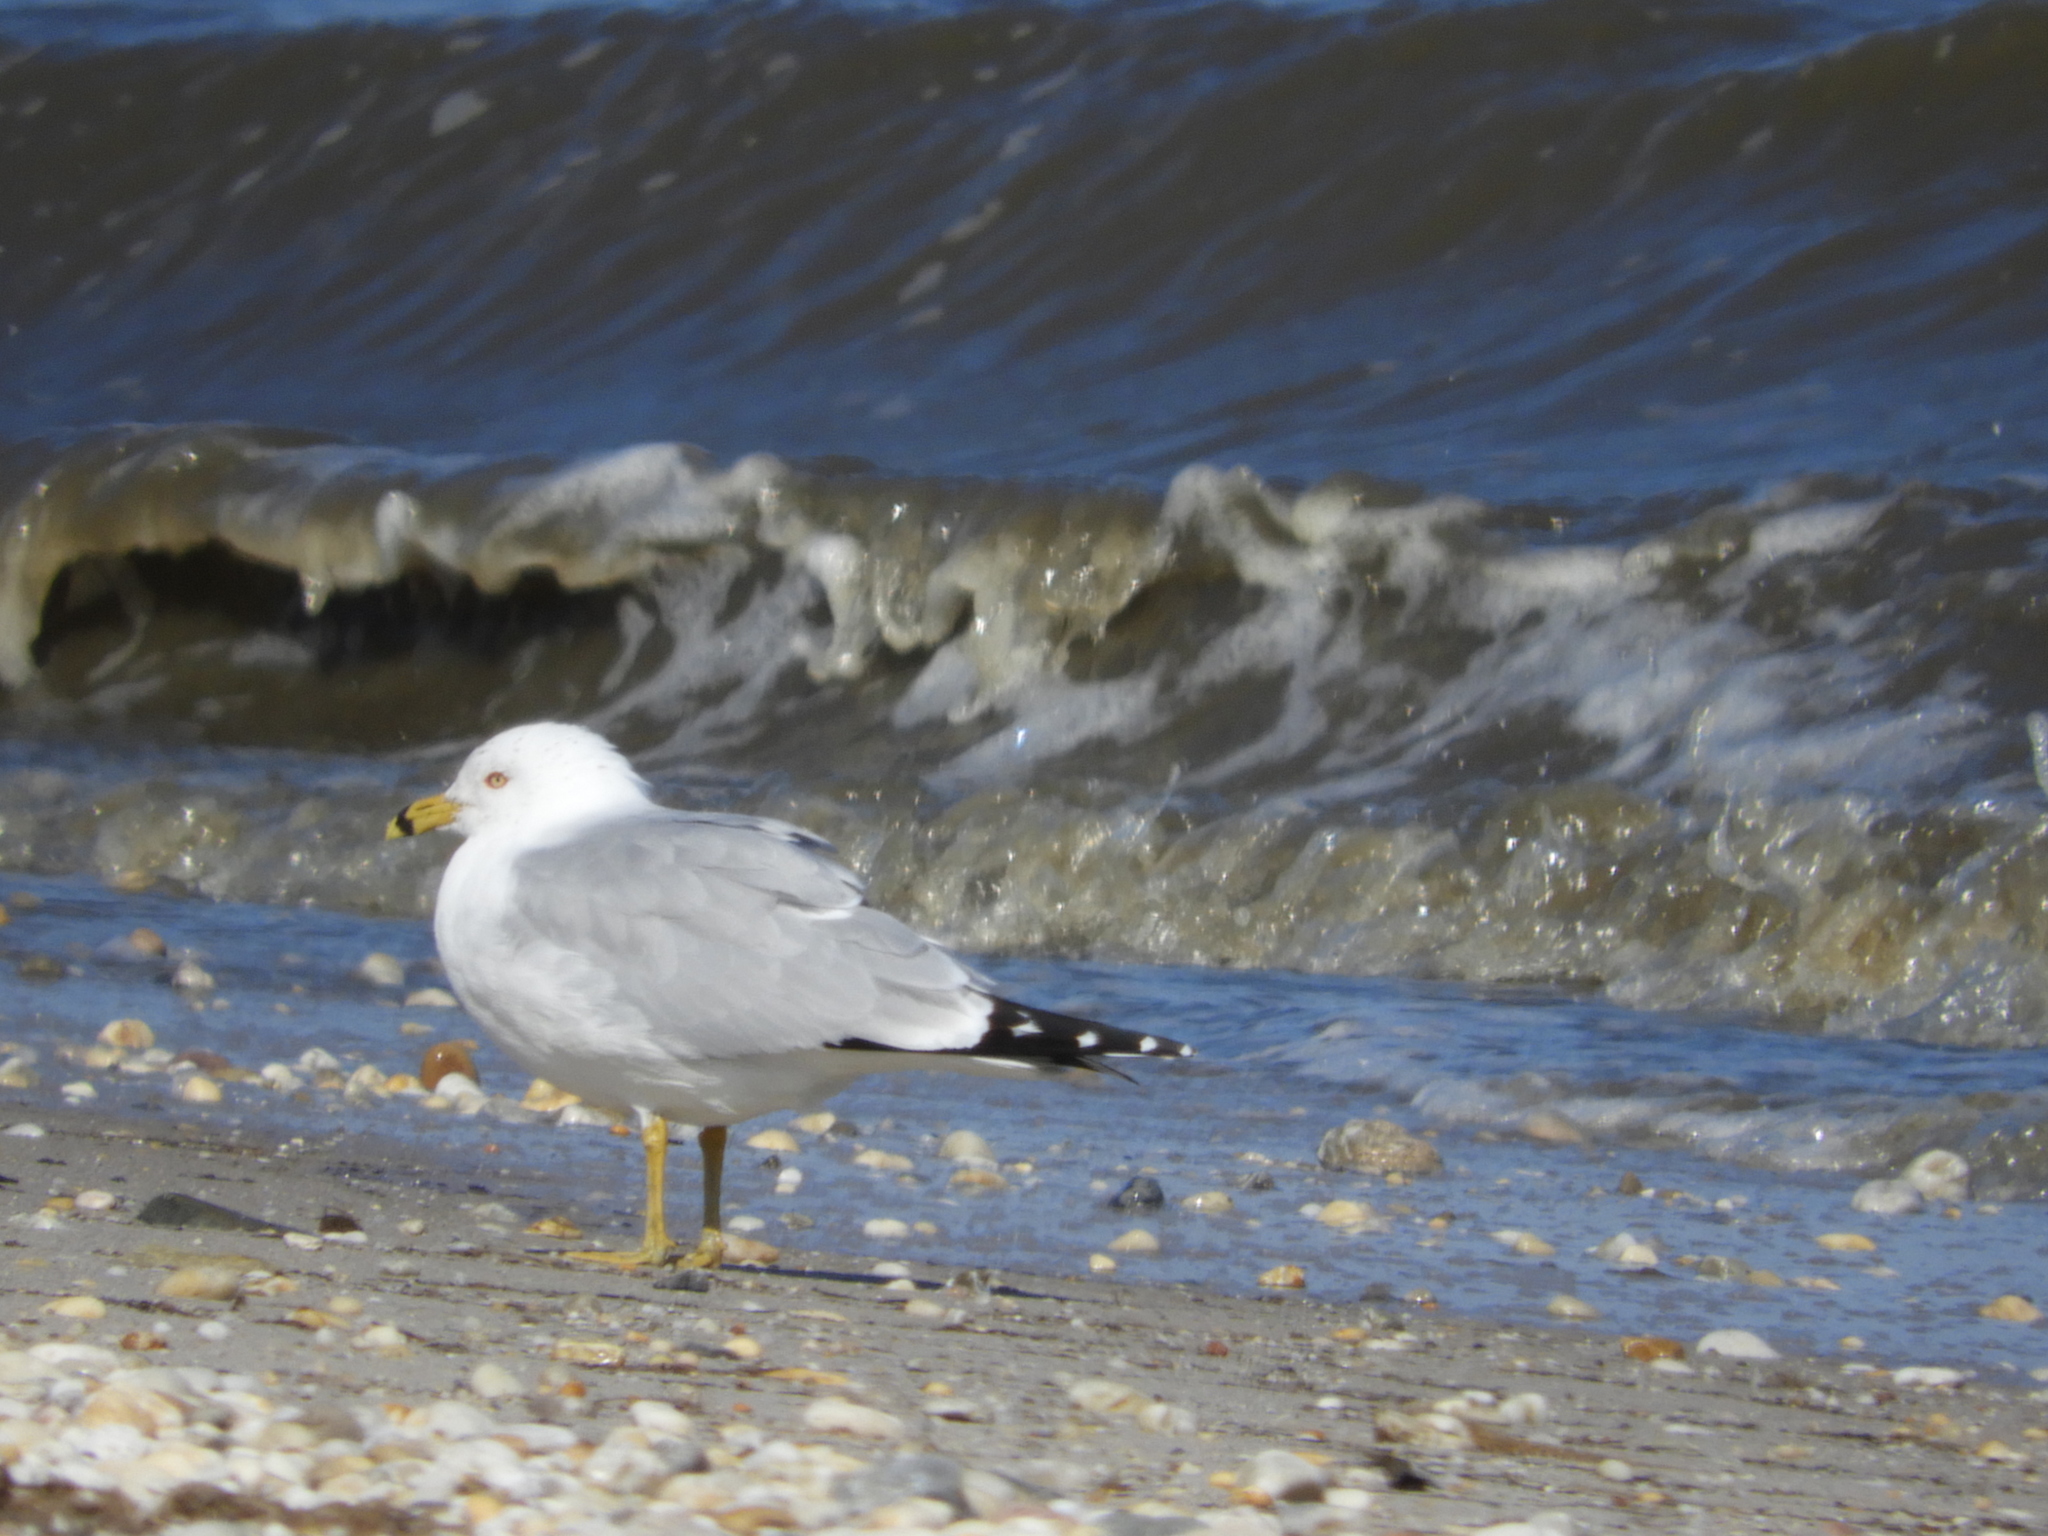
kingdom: Animalia
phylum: Chordata
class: Aves
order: Charadriiformes
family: Laridae
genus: Larus
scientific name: Larus delawarensis
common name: Ring-billed gull
